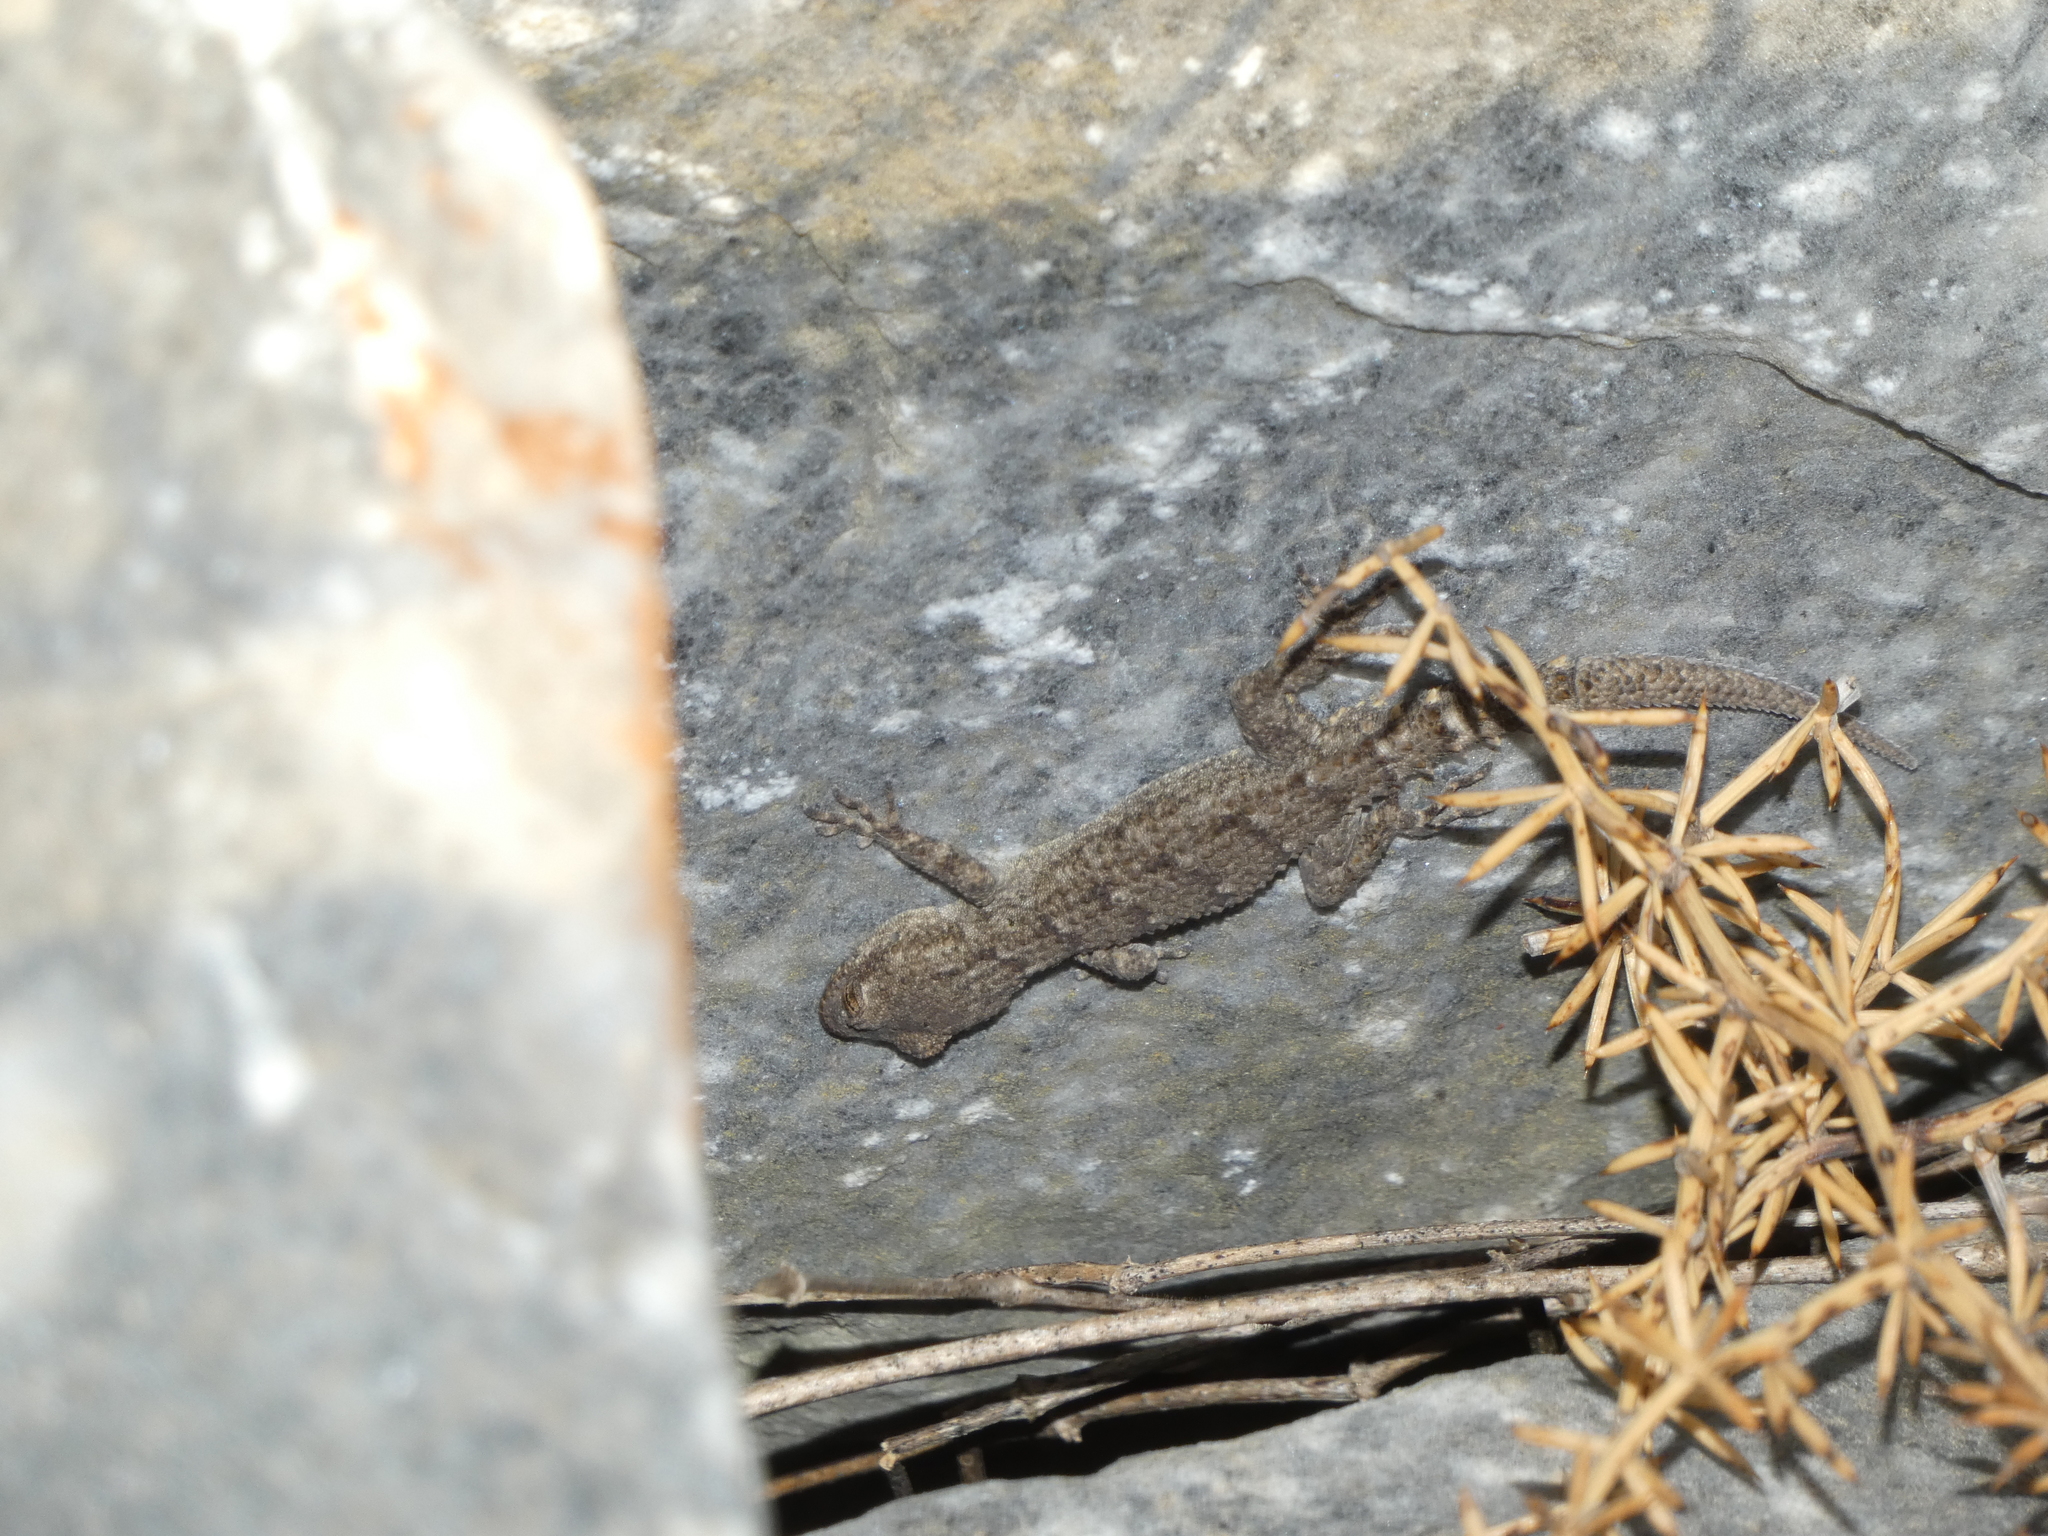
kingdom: Animalia
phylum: Chordata
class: Squamata
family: Gekkonidae
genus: Mediodactylus
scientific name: Mediodactylus kotschyi
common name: Kotschy's gecko
